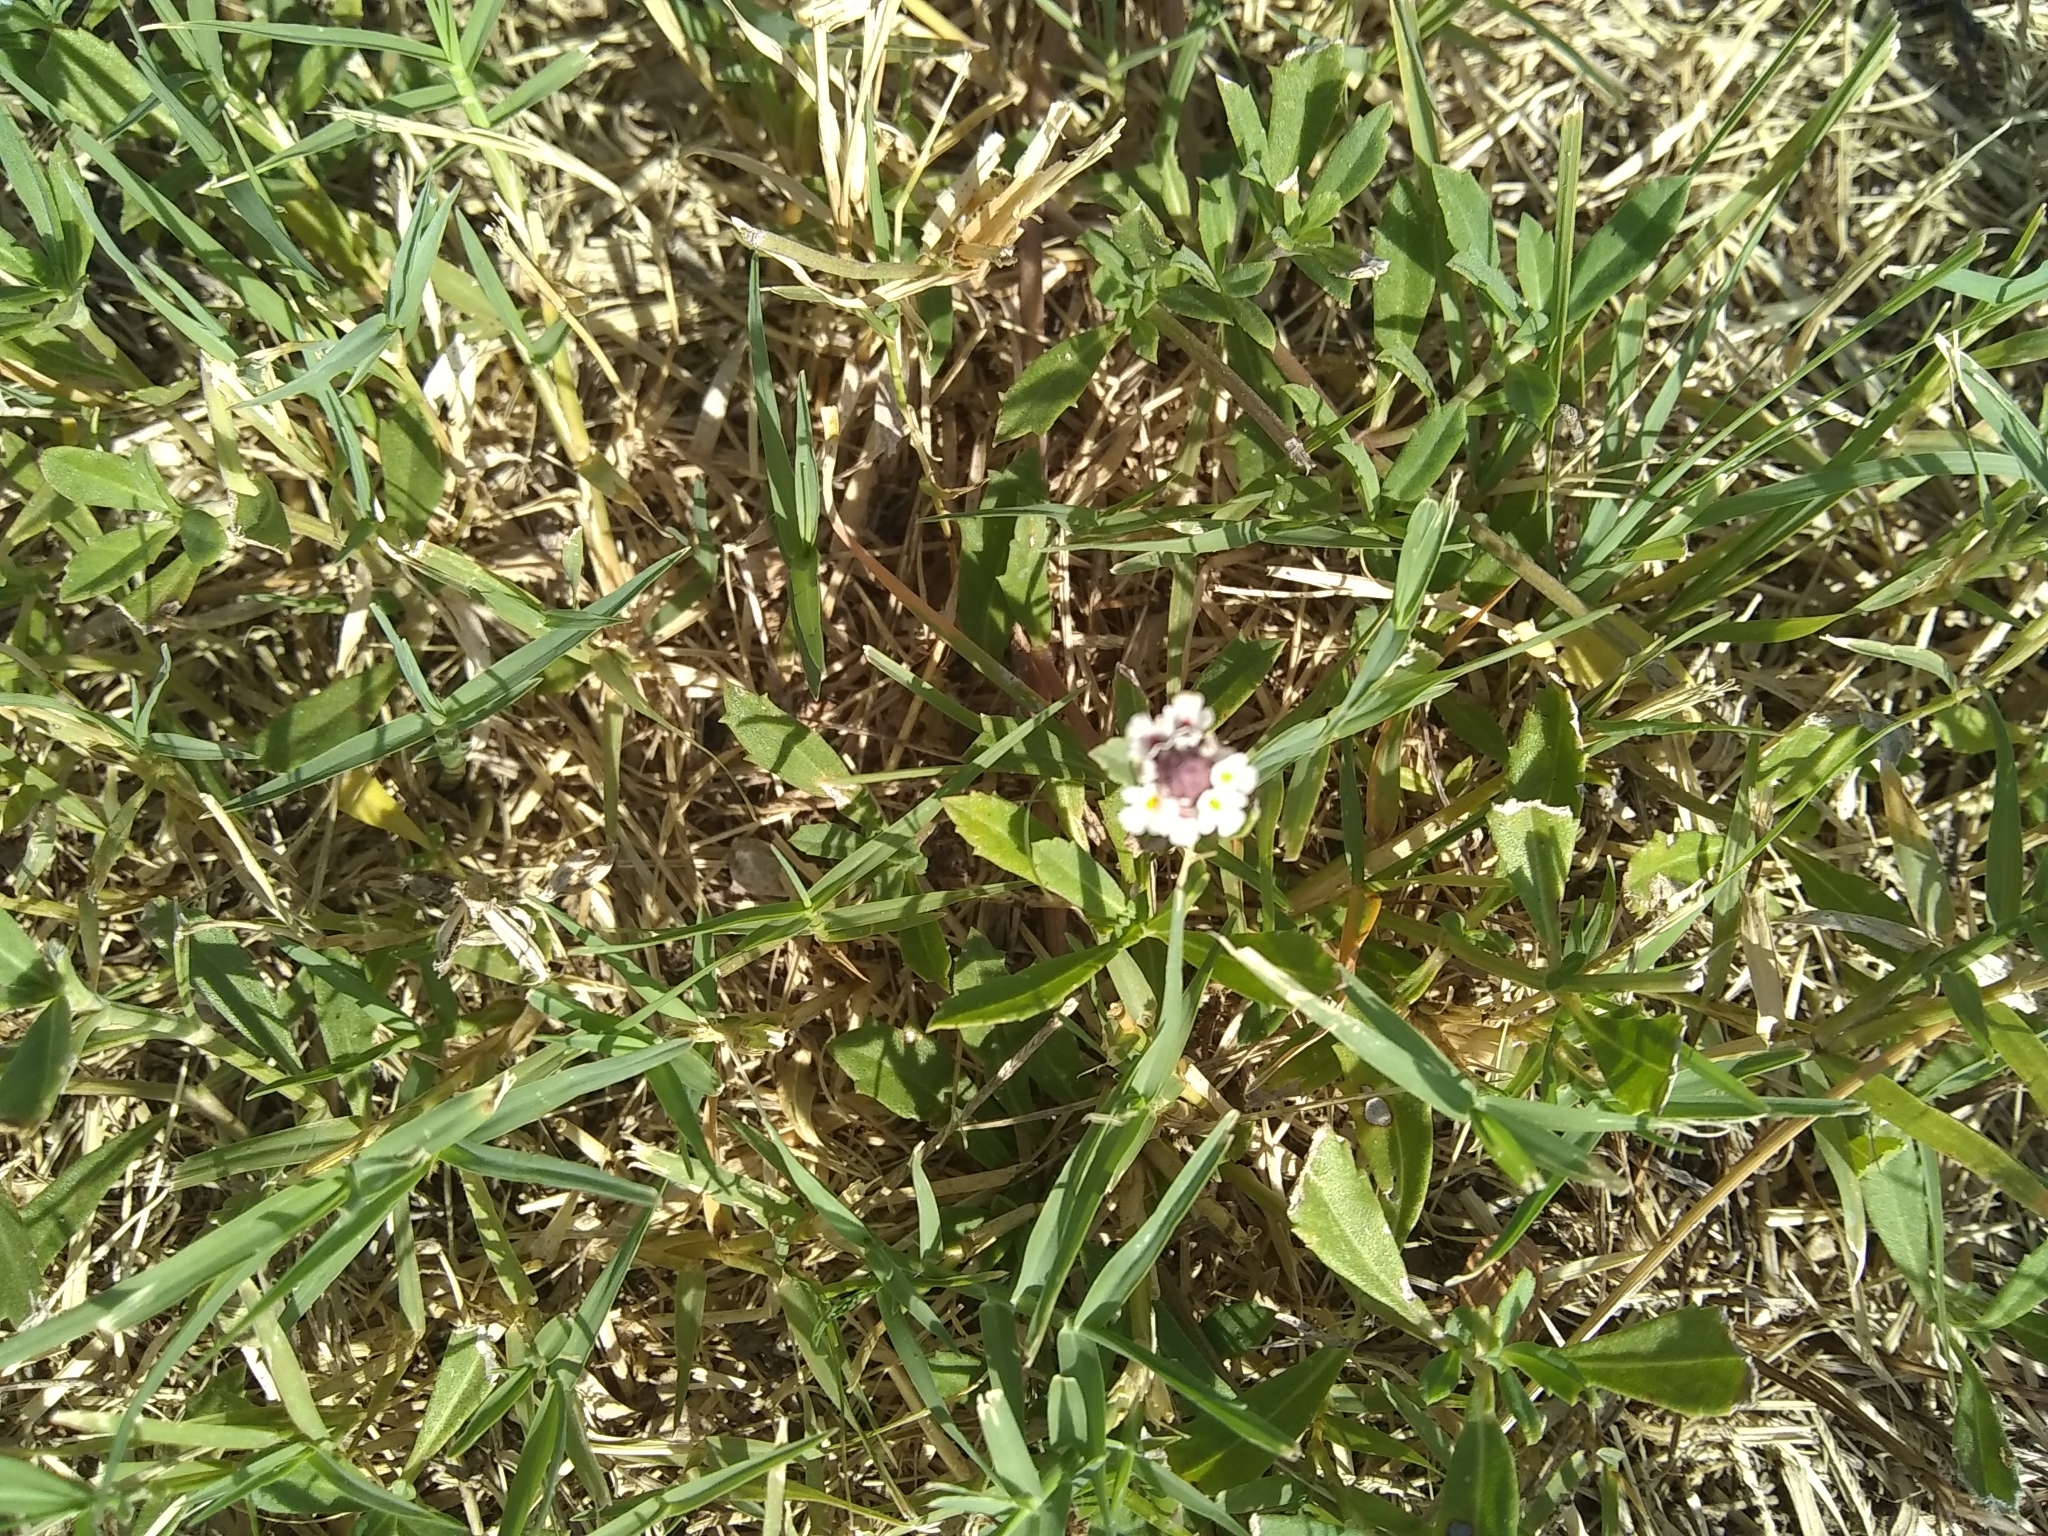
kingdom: Plantae
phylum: Tracheophyta
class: Magnoliopsida
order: Lamiales
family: Verbenaceae
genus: Phyla
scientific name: Phyla nodiflora
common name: Frogfruit
